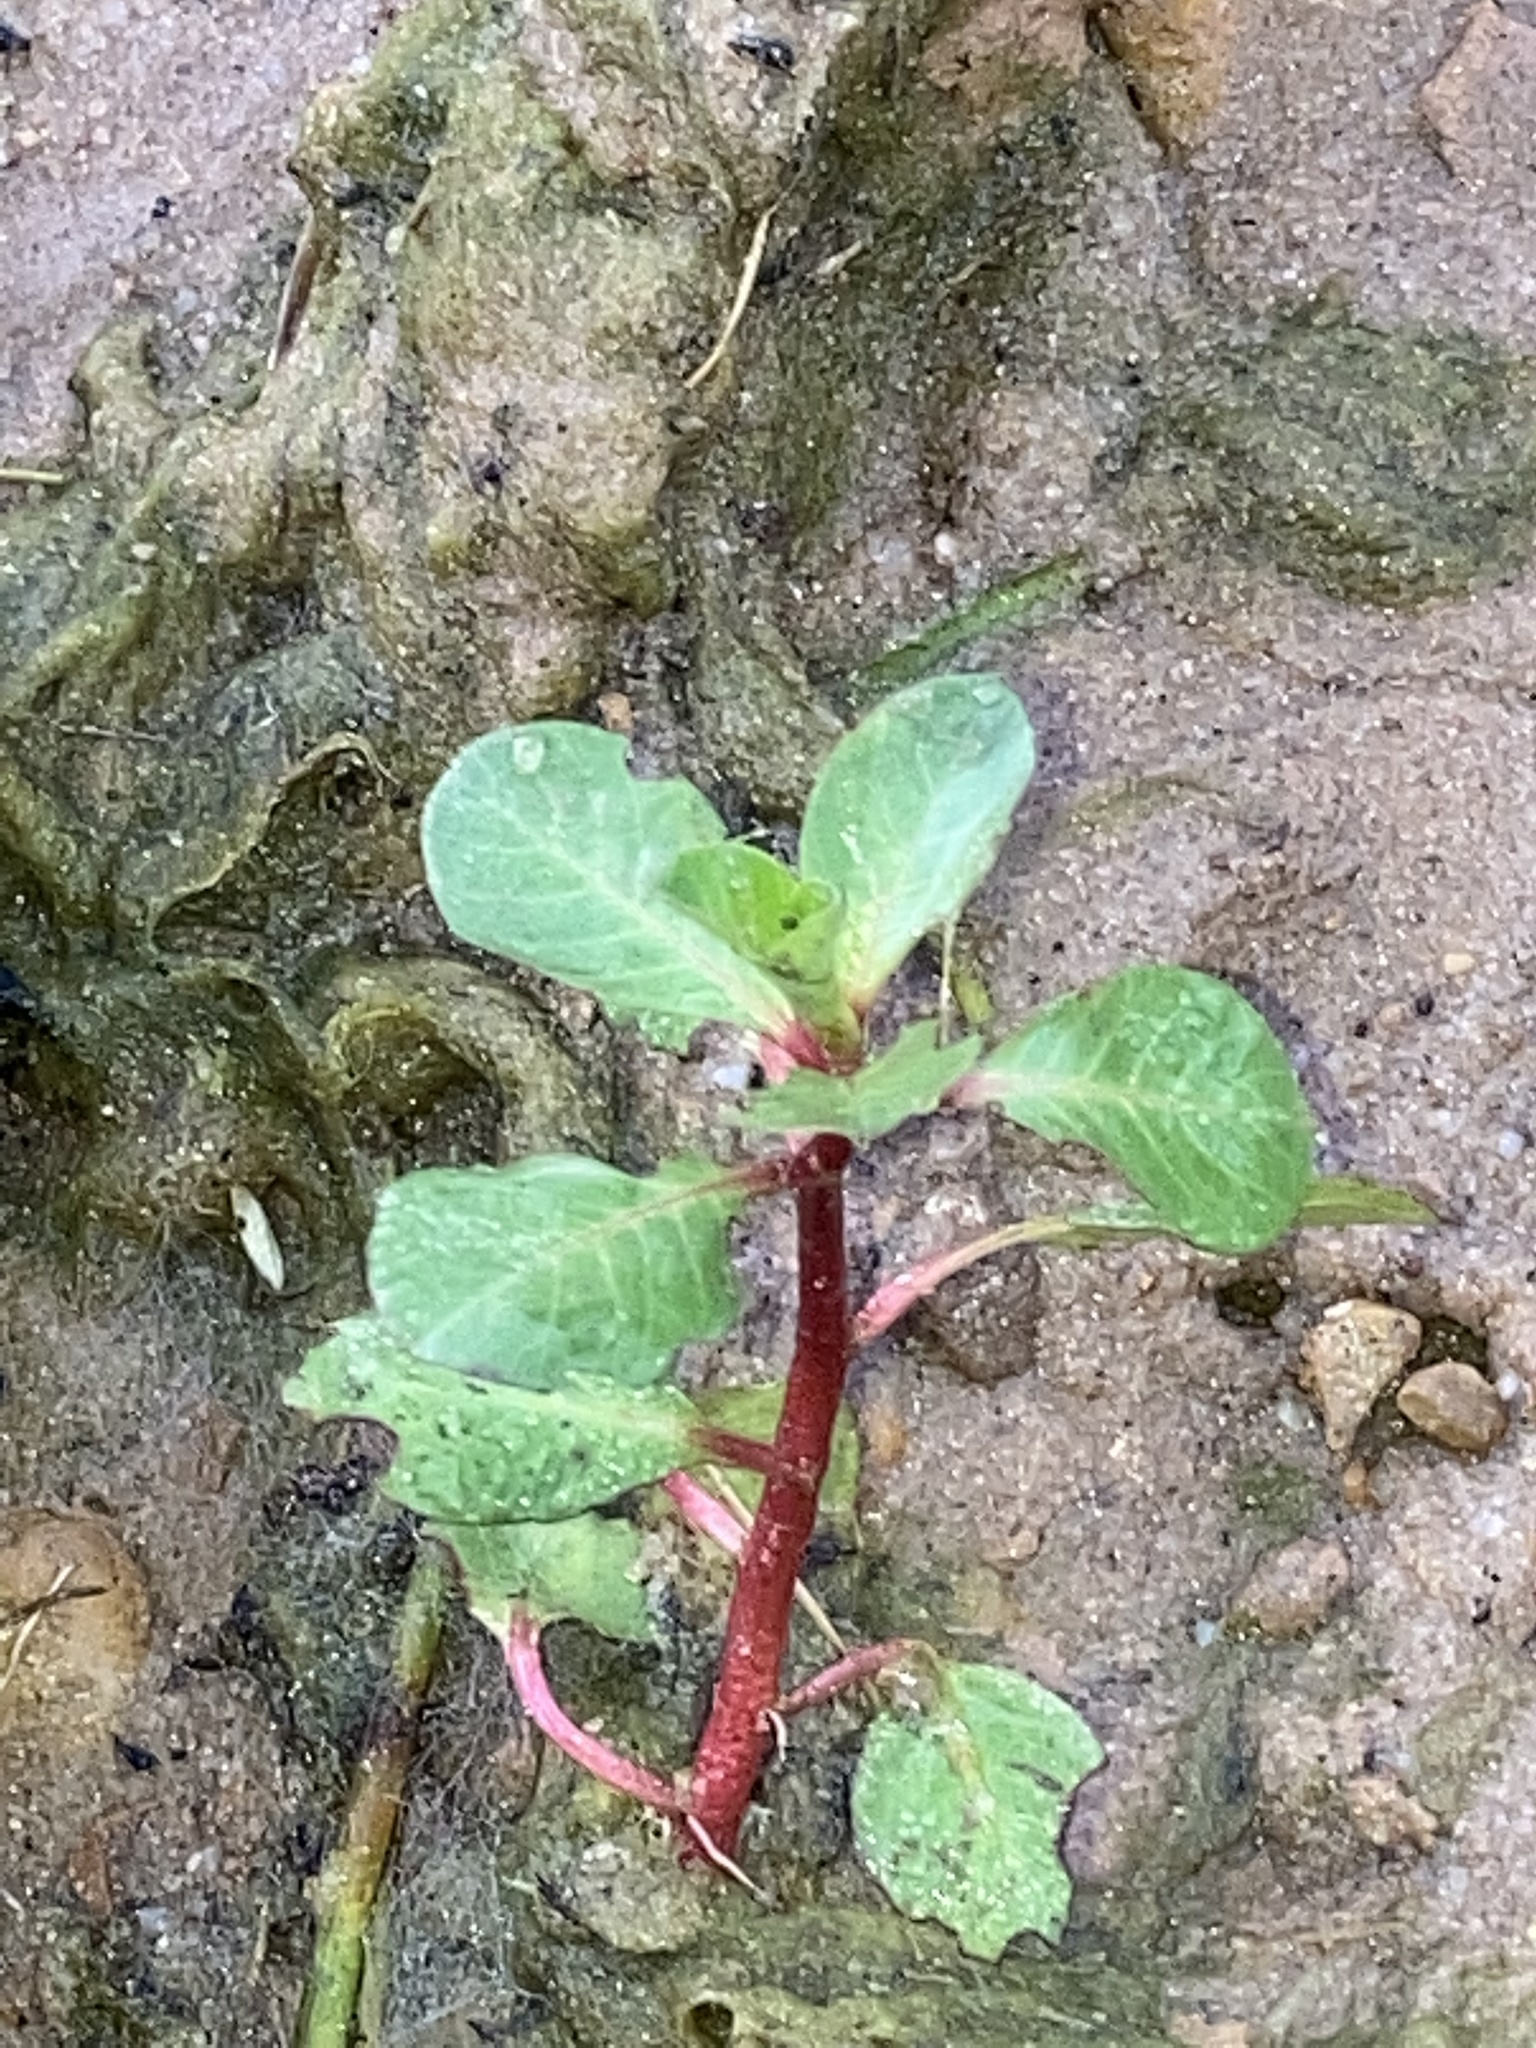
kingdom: Plantae
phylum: Tracheophyta
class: Magnoliopsida
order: Myrtales
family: Onagraceae
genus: Ludwigia
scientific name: Ludwigia peploides
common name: Floating primrose-willow
